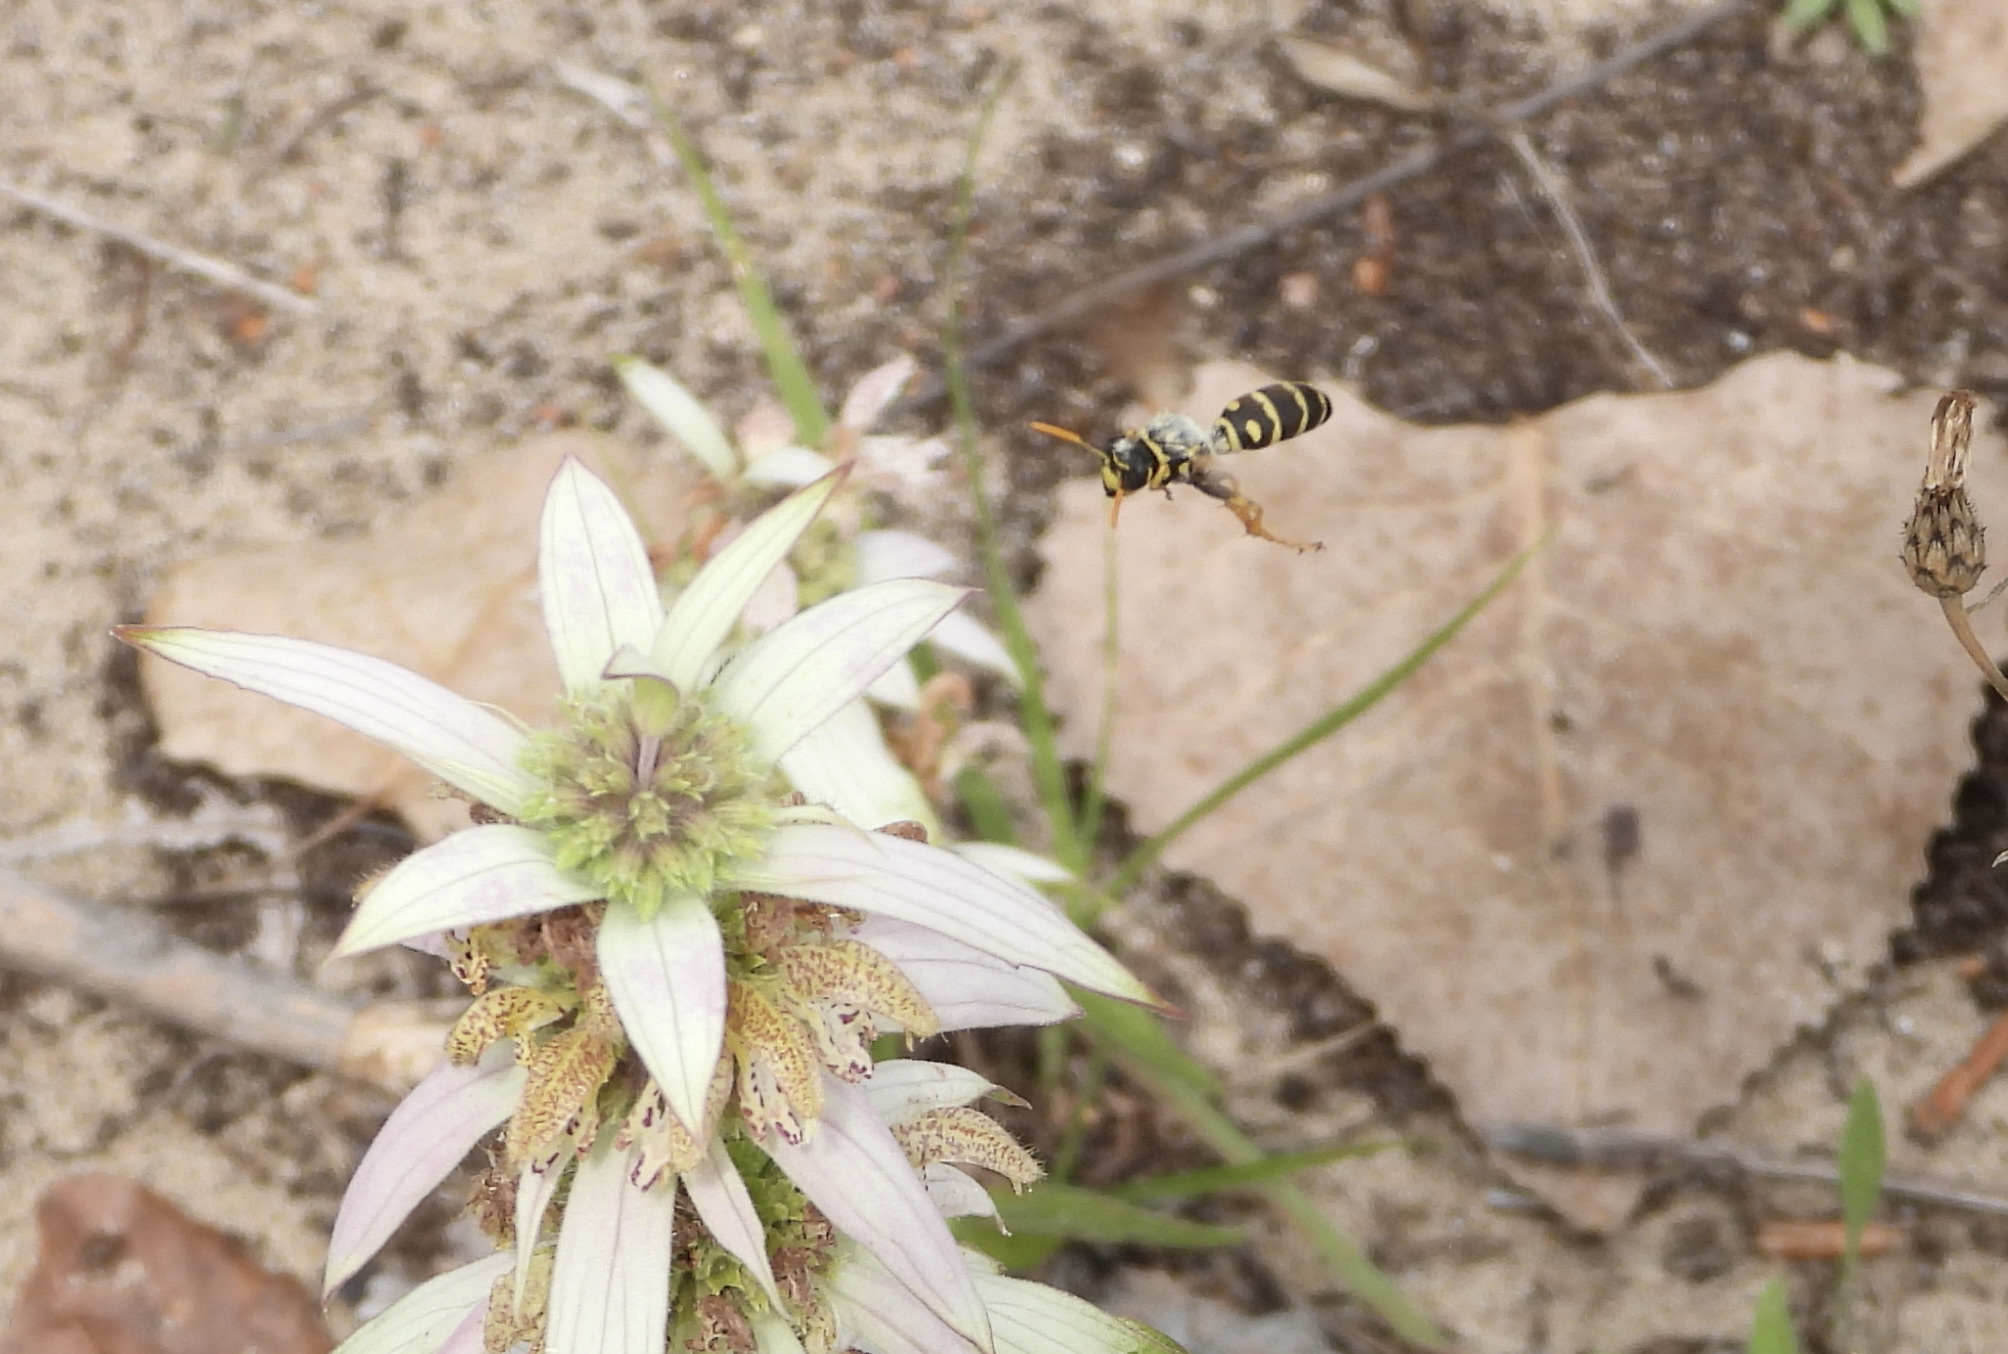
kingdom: Animalia
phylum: Arthropoda
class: Insecta
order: Hymenoptera
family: Eumenidae
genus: Polistes
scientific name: Polistes dominula
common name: Paper wasp
